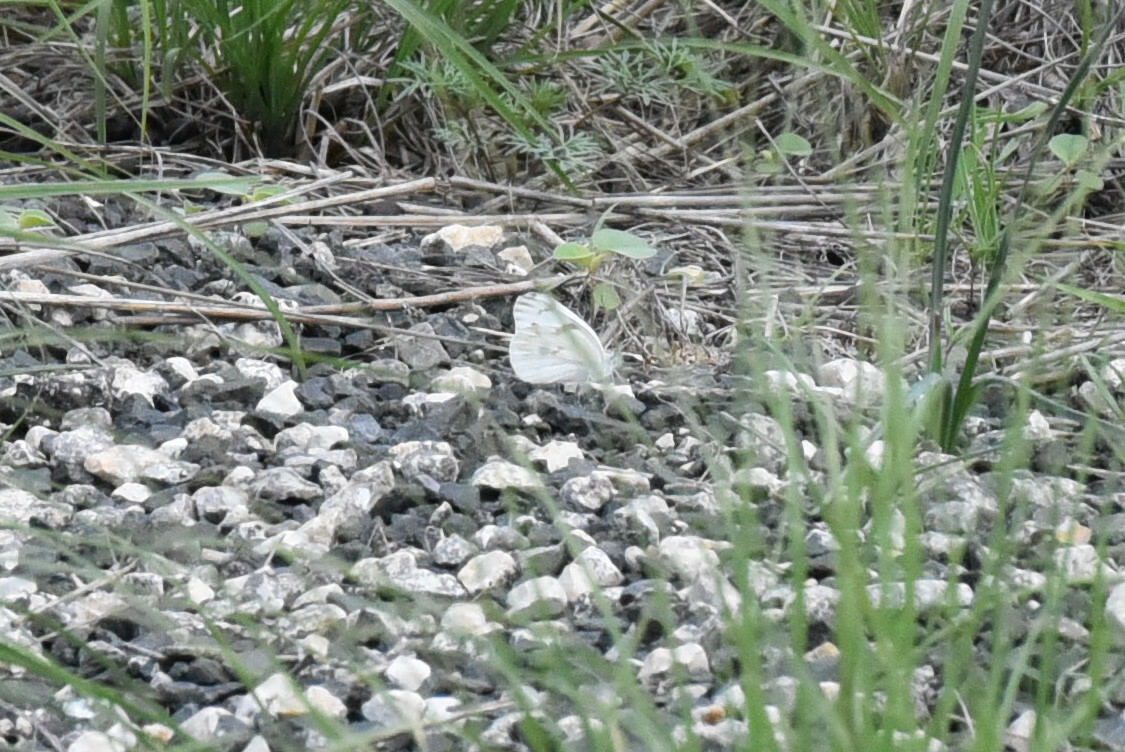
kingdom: Animalia
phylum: Arthropoda
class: Insecta
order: Lepidoptera
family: Pieridae
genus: Pontia
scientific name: Pontia protodice
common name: Checkered white
